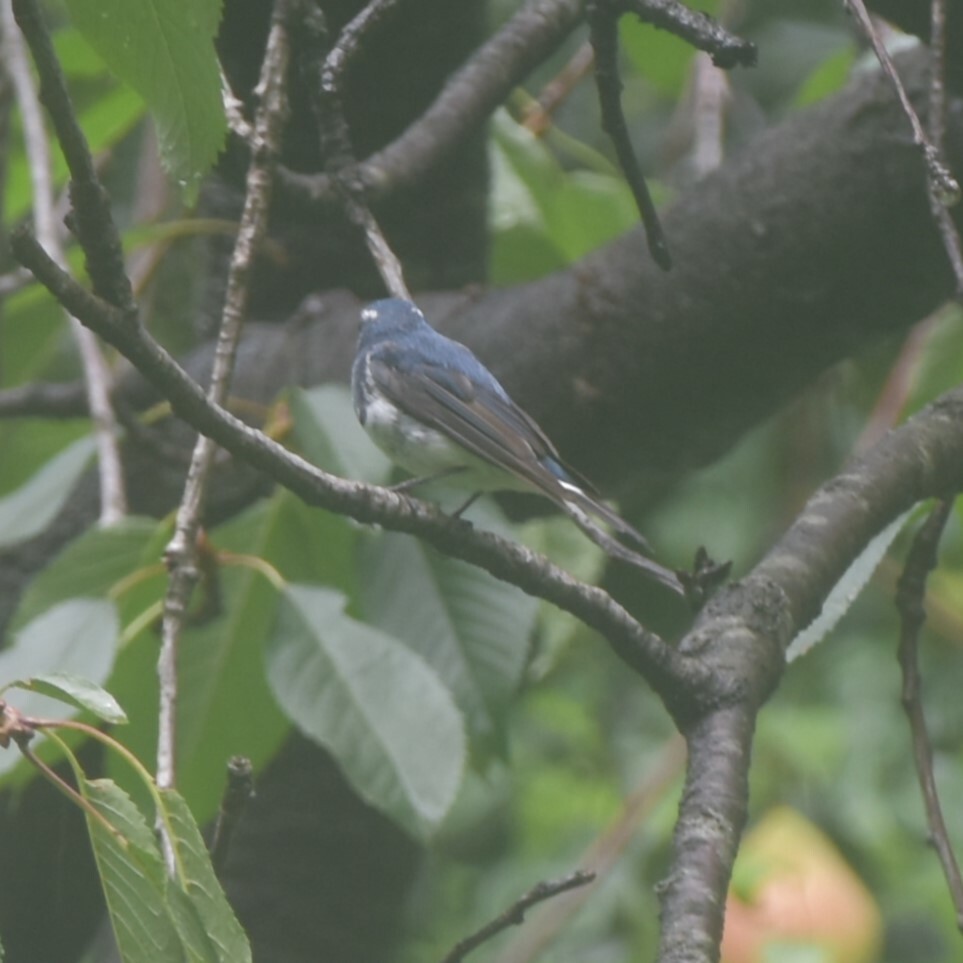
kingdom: Animalia
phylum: Chordata
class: Aves
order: Passeriformes
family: Muscicapidae
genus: Ficedula
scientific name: Ficedula superciliaris
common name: Ultramarine flycatcher
